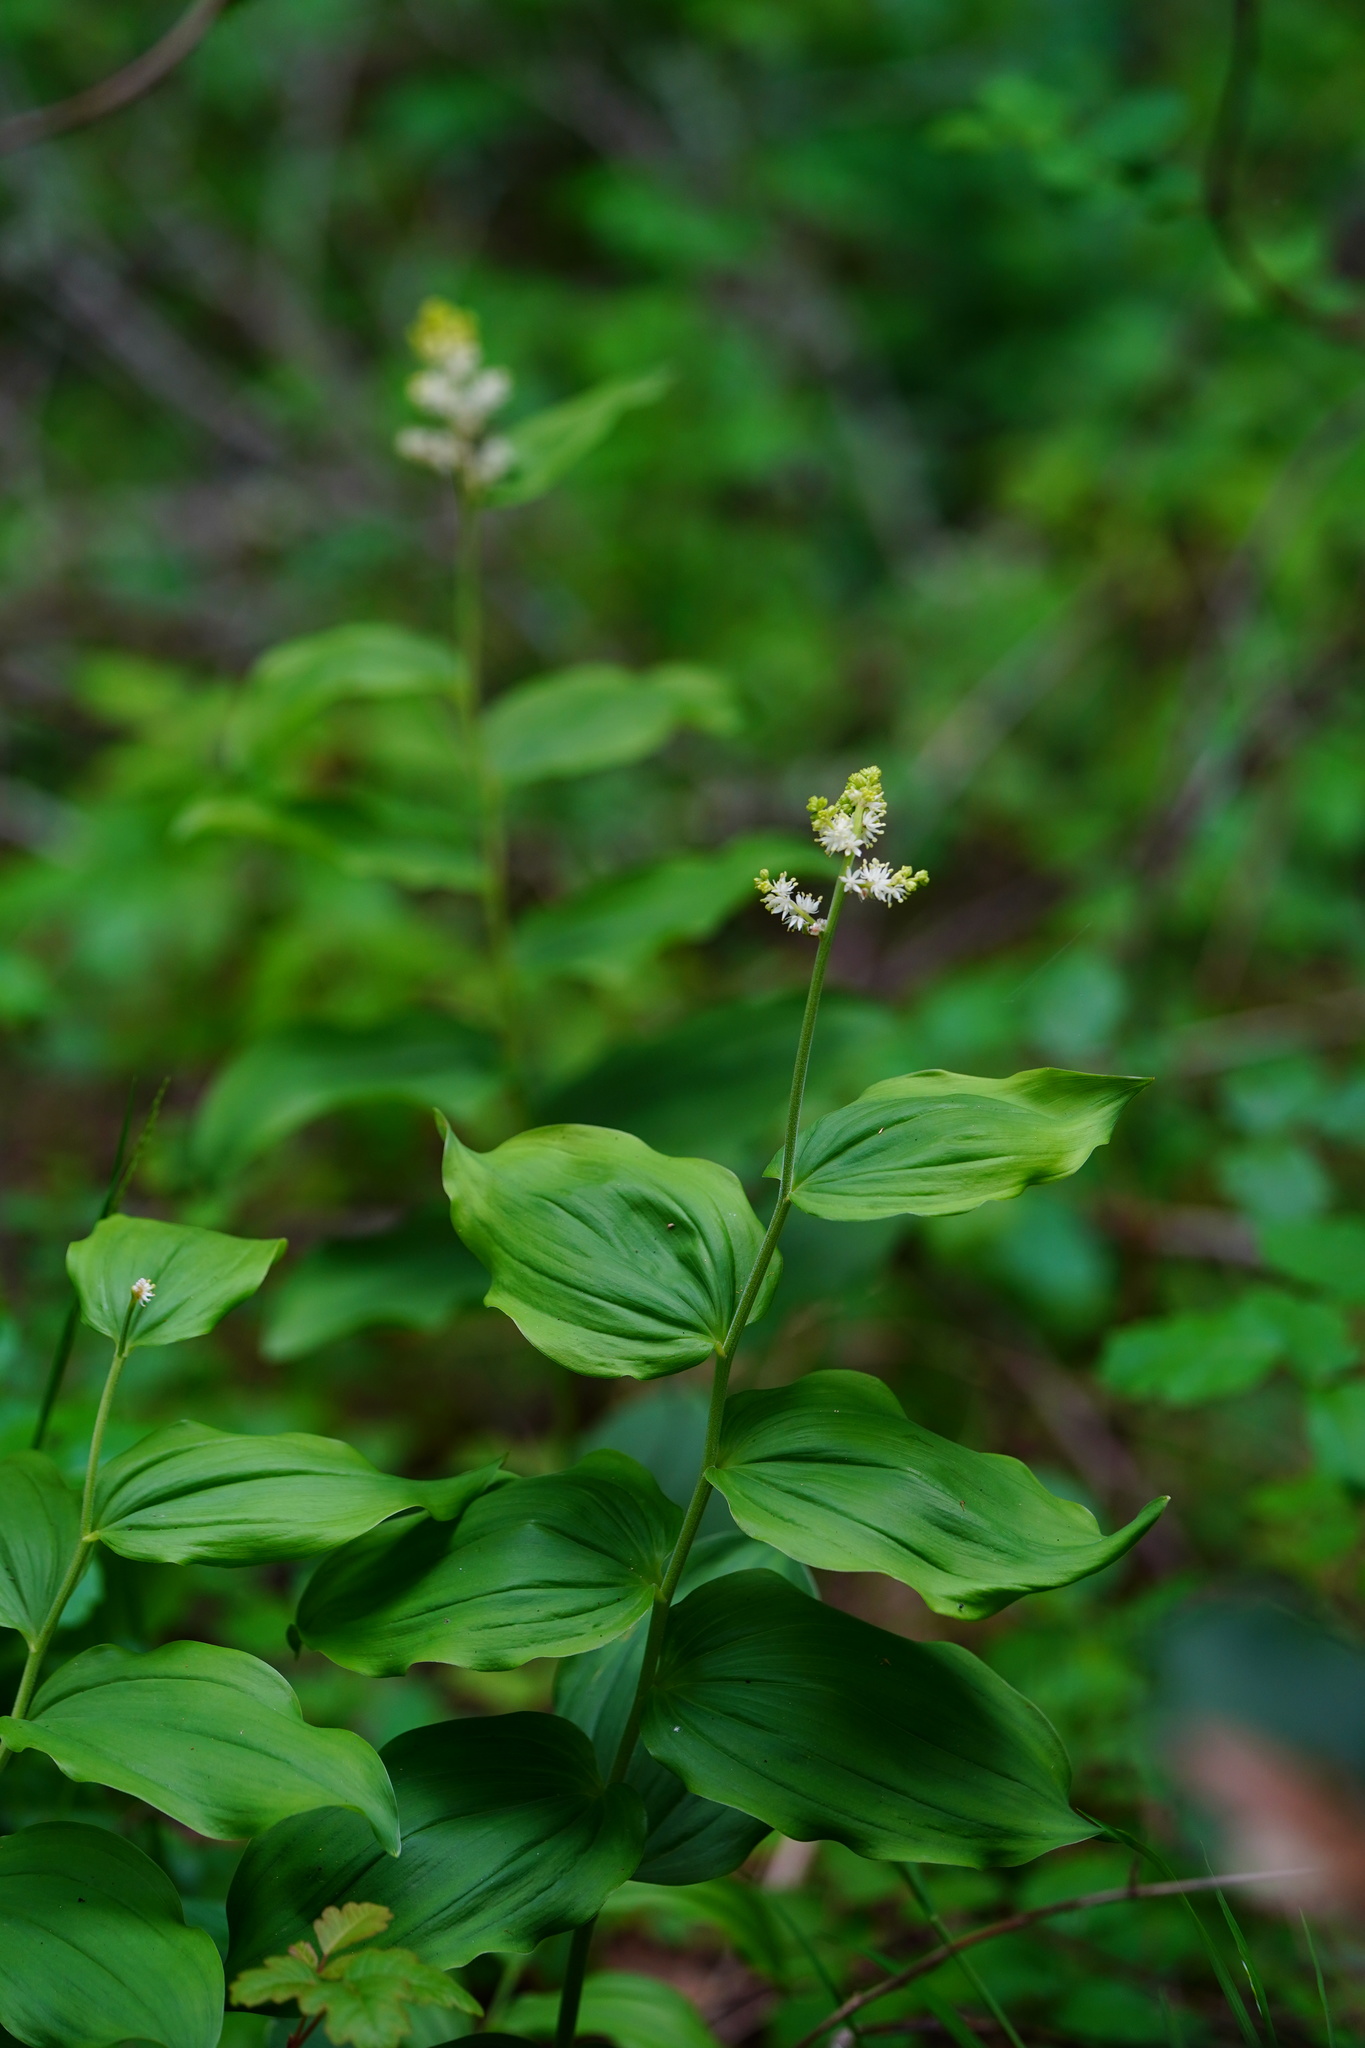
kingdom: Plantae
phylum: Tracheophyta
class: Liliopsida
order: Asparagales
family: Asparagaceae
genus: Maianthemum
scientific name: Maianthemum racemosum
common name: False spikenard
